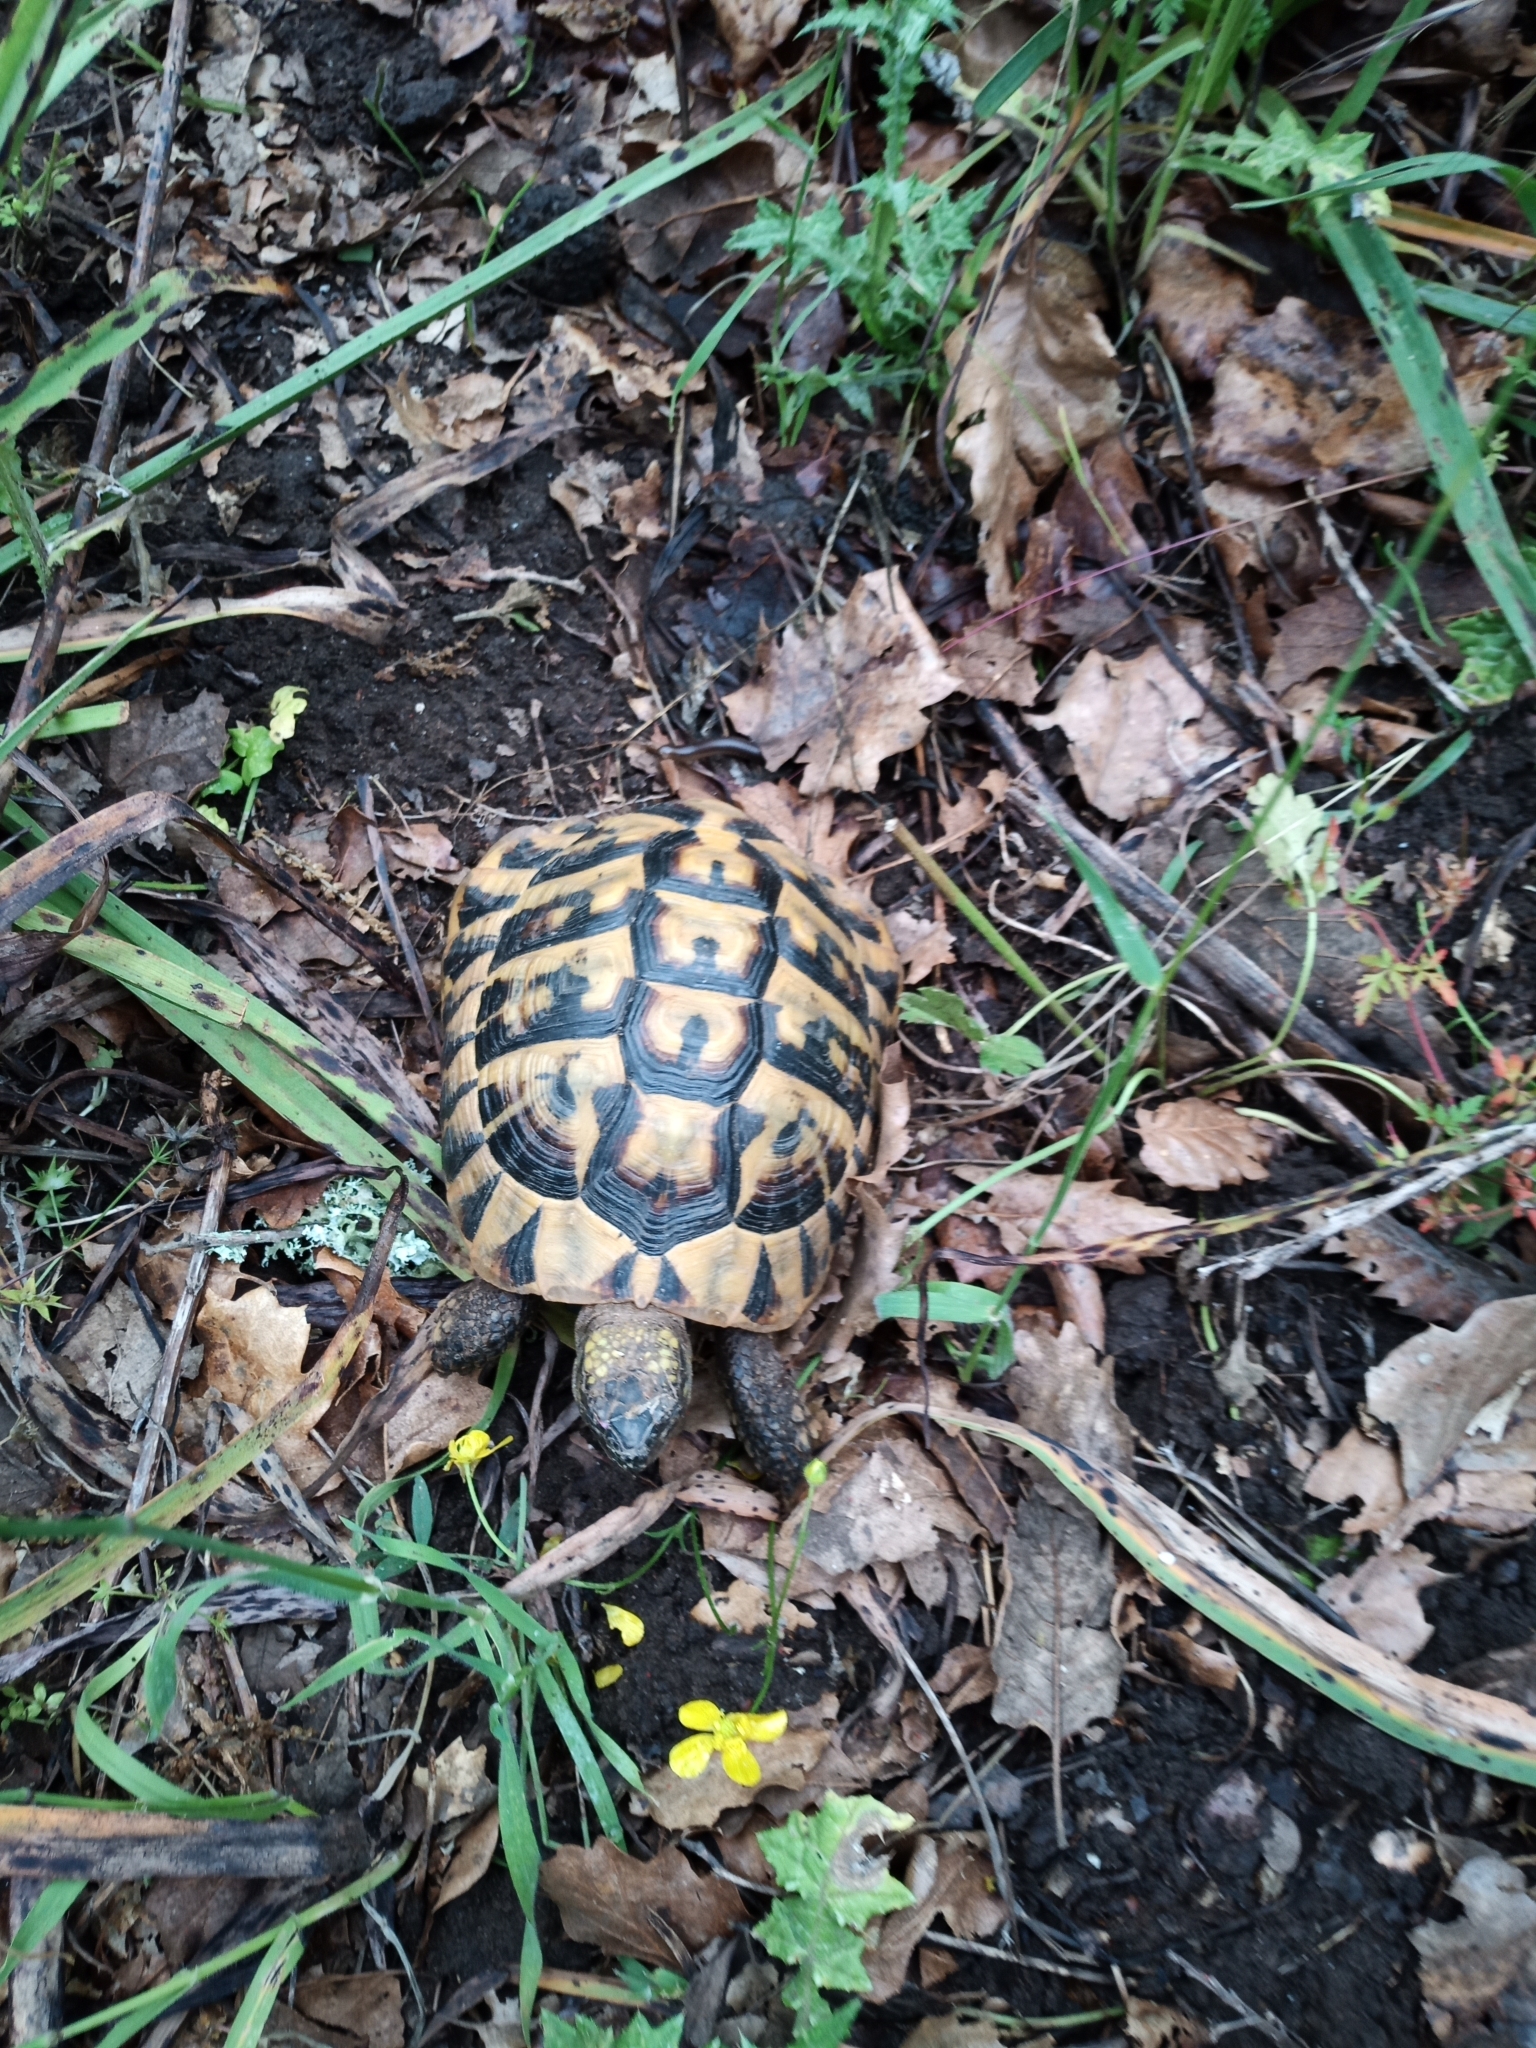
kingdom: Animalia
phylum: Chordata
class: Testudines
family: Testudinidae
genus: Testudo
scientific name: Testudo hermanni
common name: Hermann's tortoise
